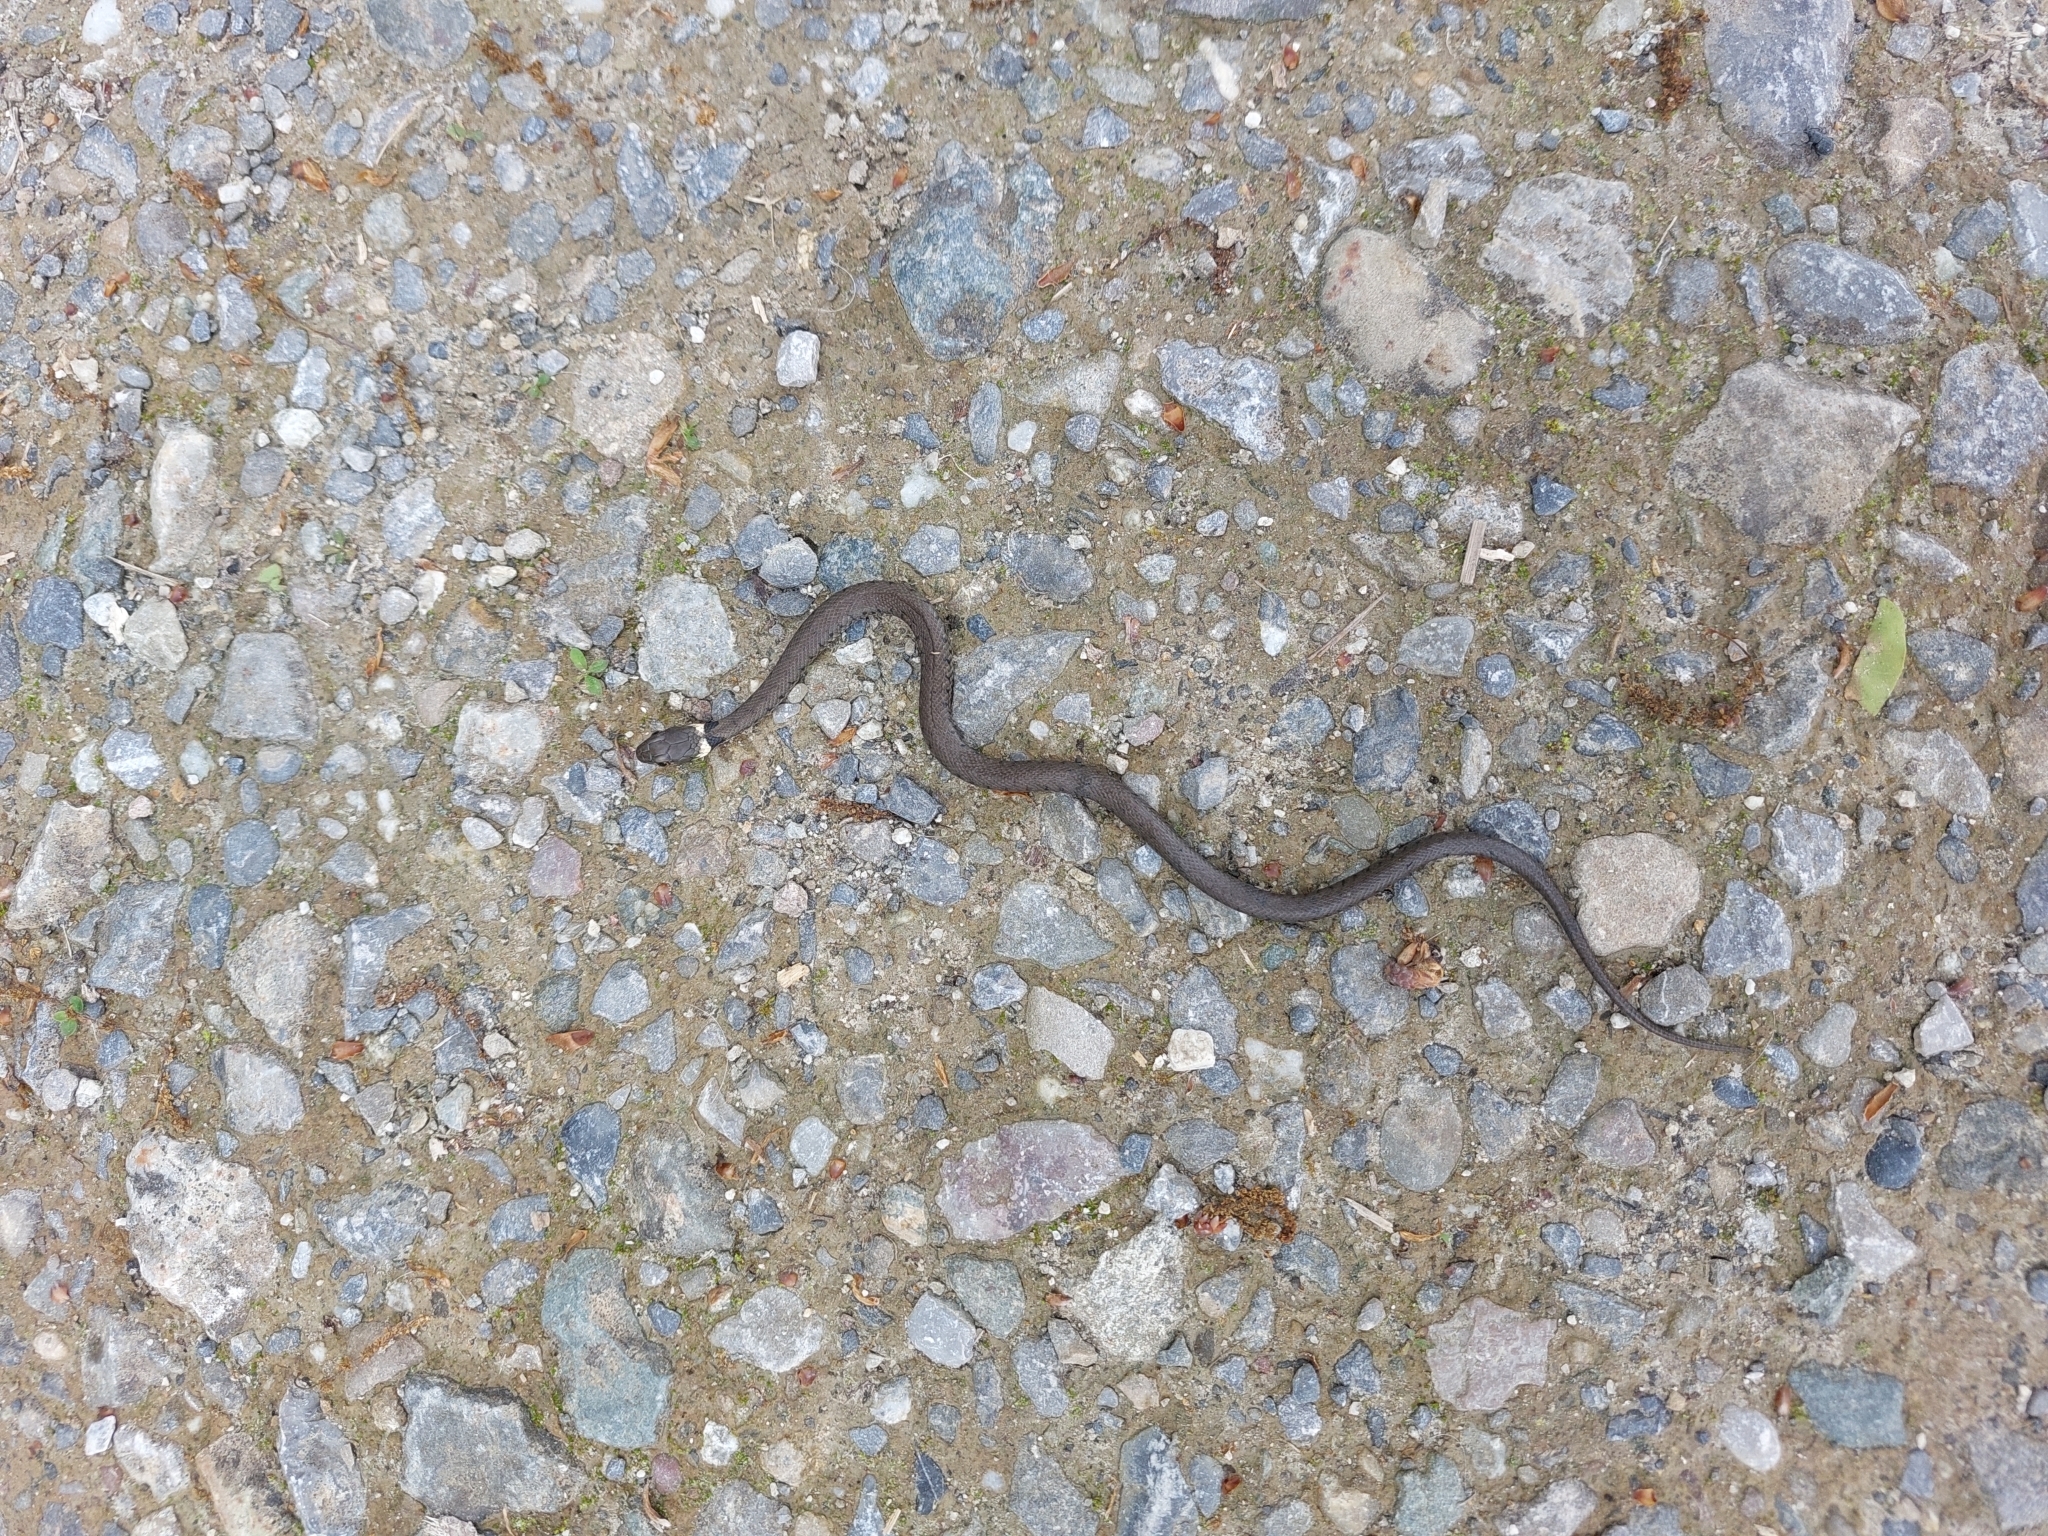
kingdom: Animalia
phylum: Chordata
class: Squamata
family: Colubridae
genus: Natrix
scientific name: Natrix helvetica
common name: Banded grass snake
